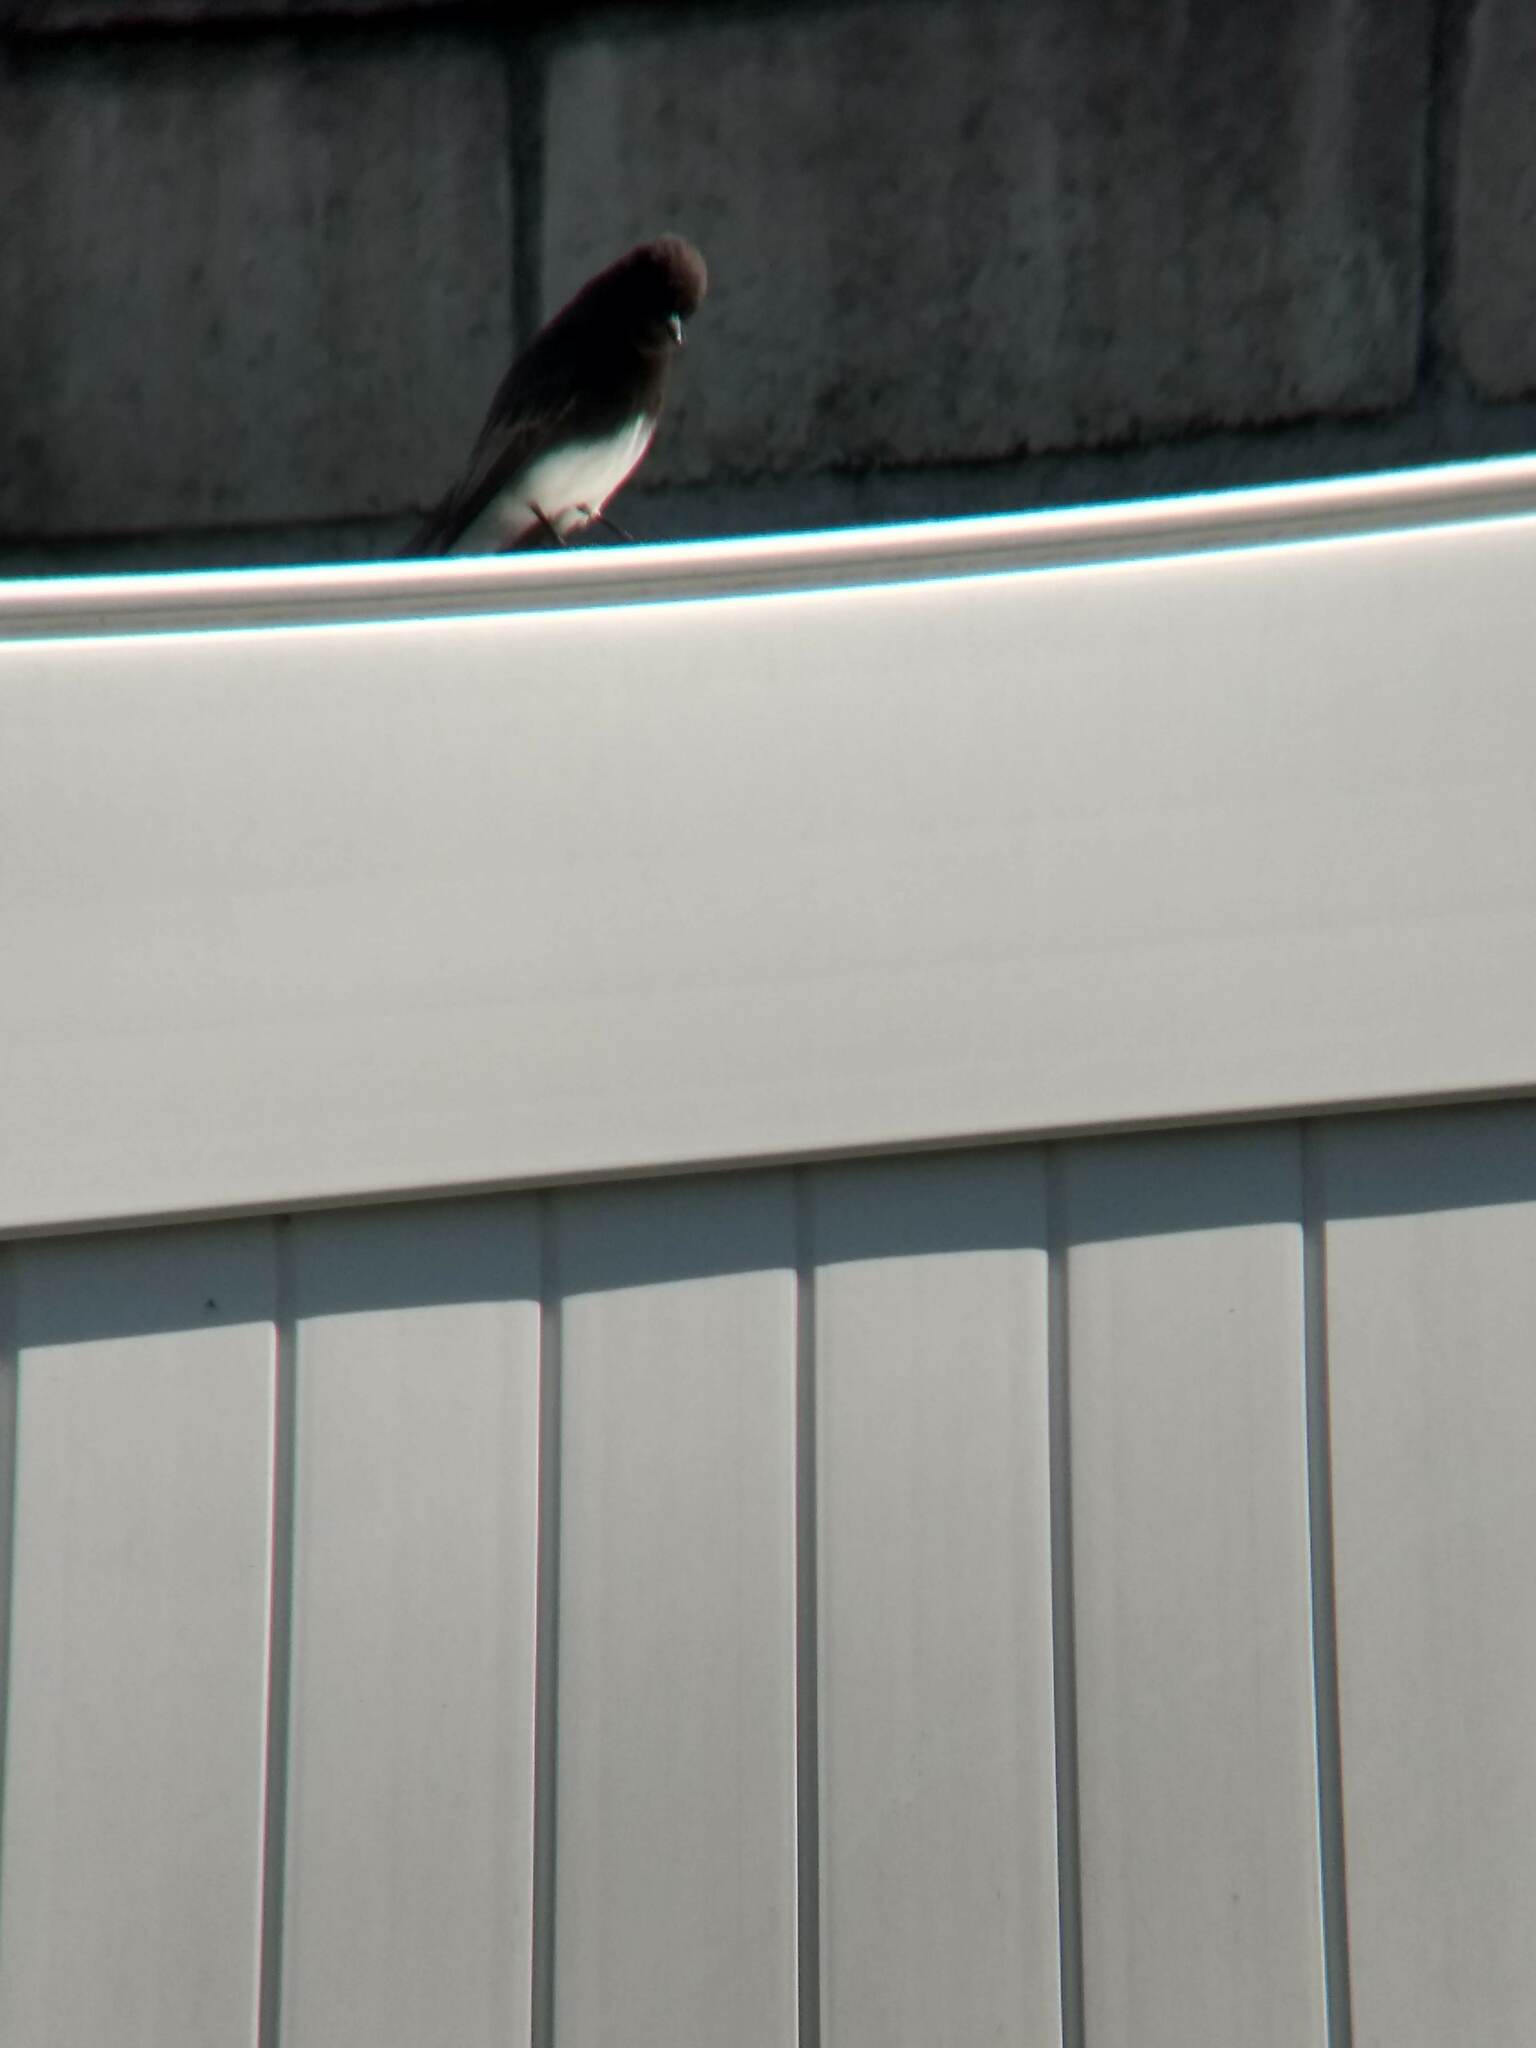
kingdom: Animalia
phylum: Chordata
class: Aves
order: Passeriformes
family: Tyrannidae
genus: Sayornis
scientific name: Sayornis nigricans
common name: Black phoebe
